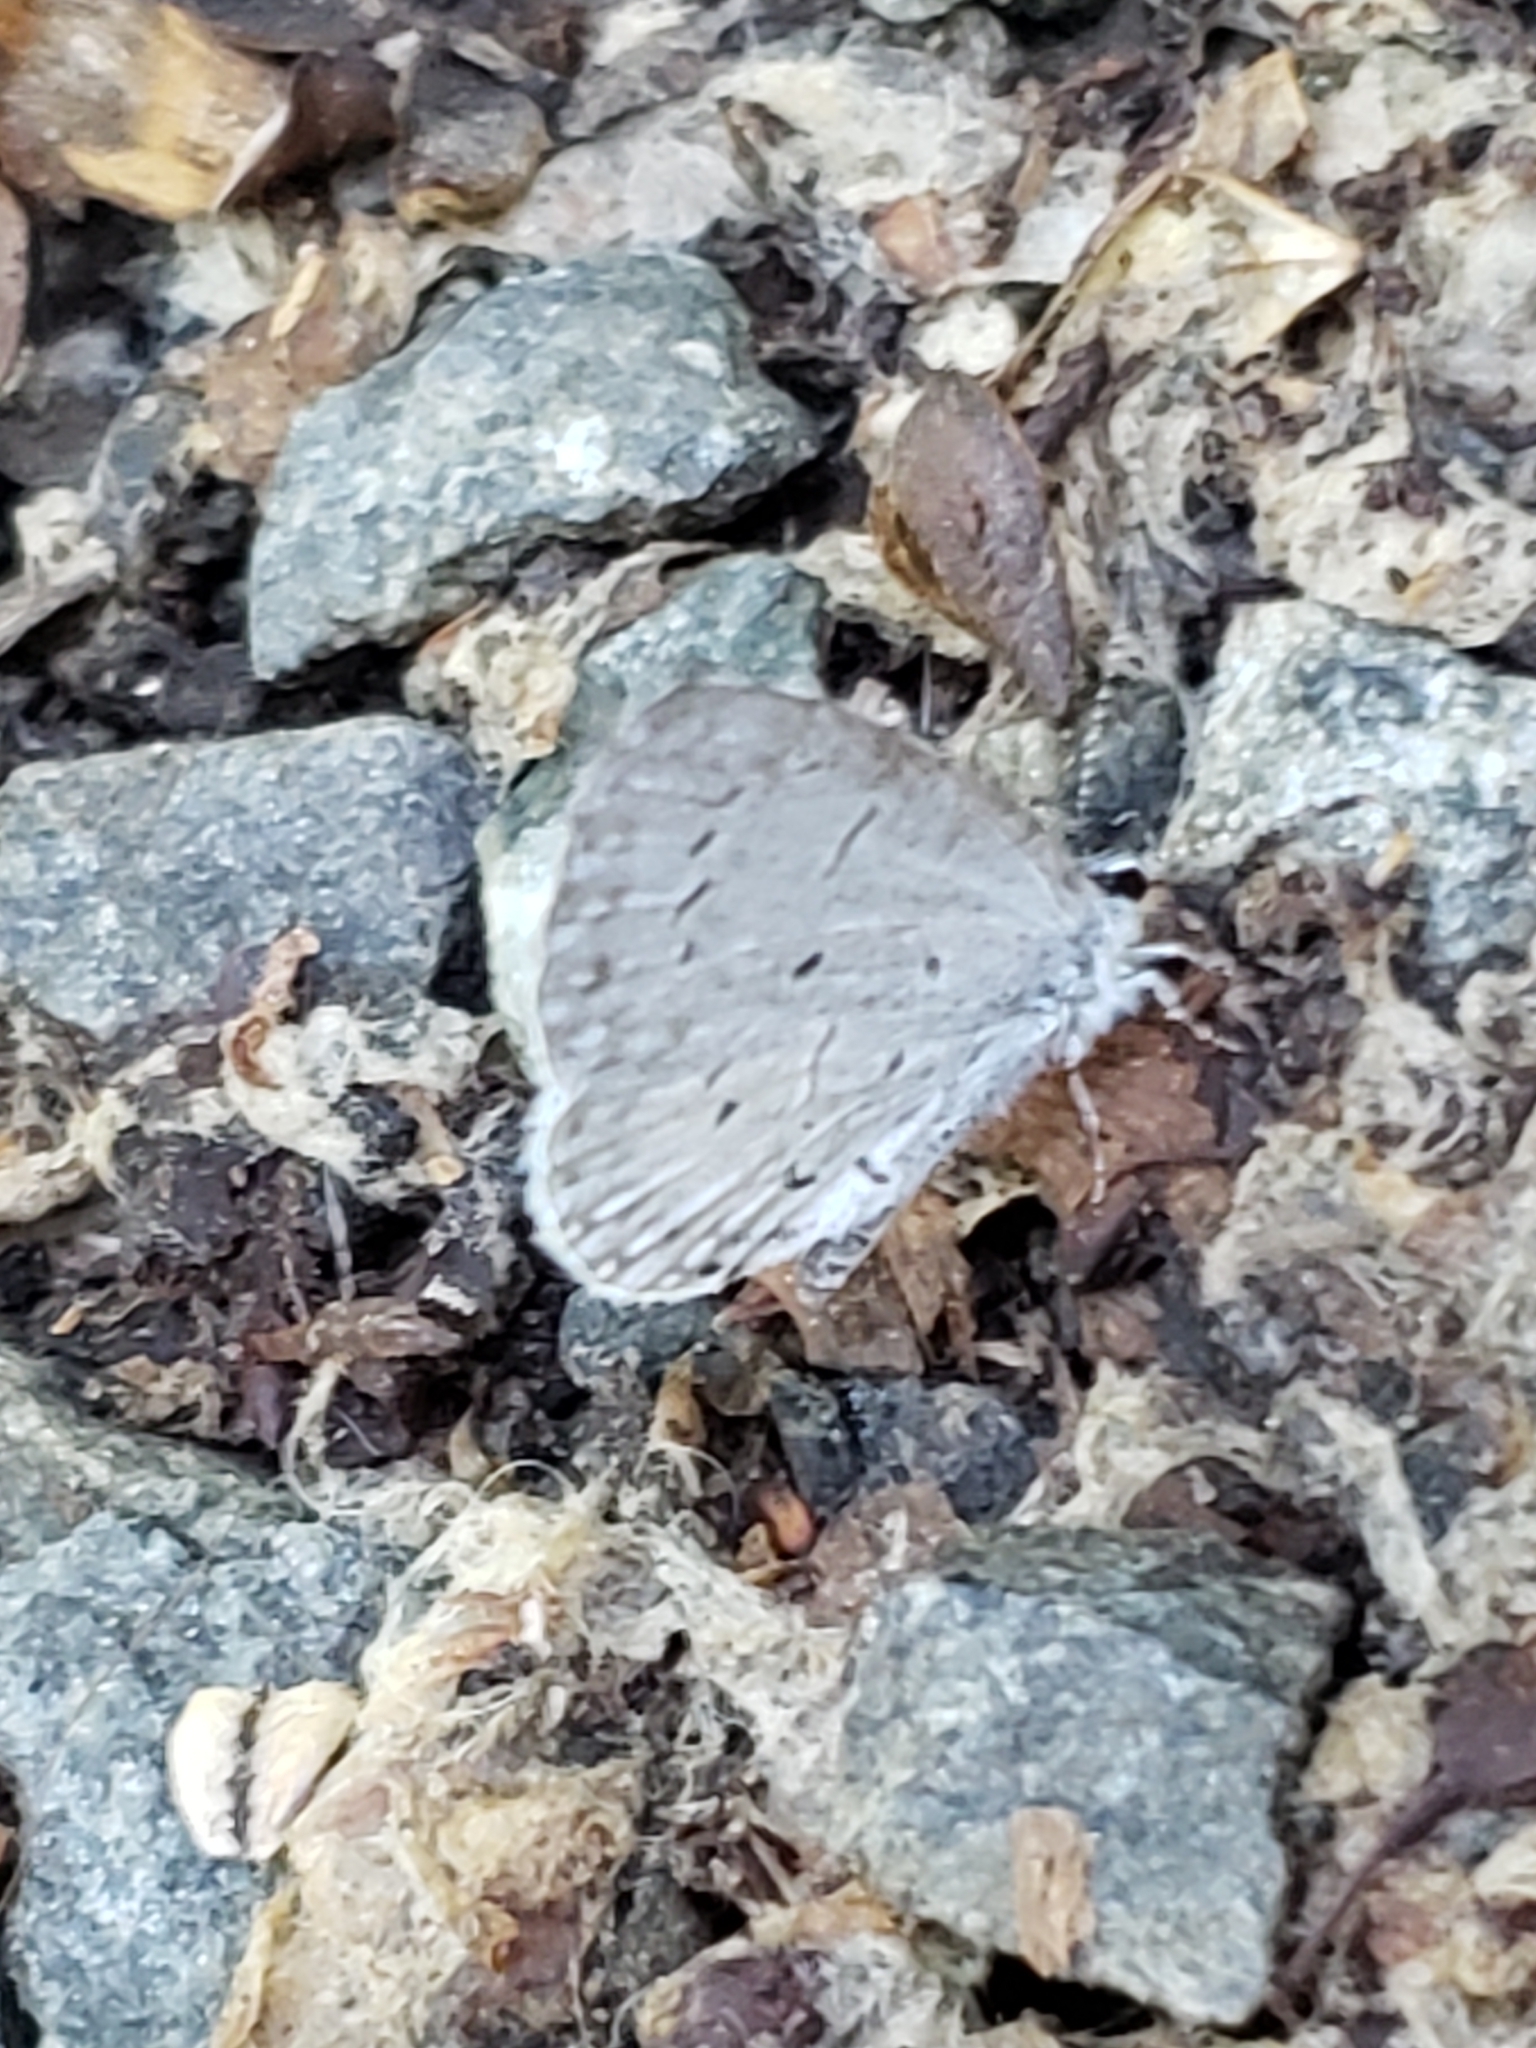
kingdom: Animalia
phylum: Arthropoda
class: Insecta
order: Lepidoptera
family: Lycaenidae
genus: Cyaniris
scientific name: Cyaniris neglecta
